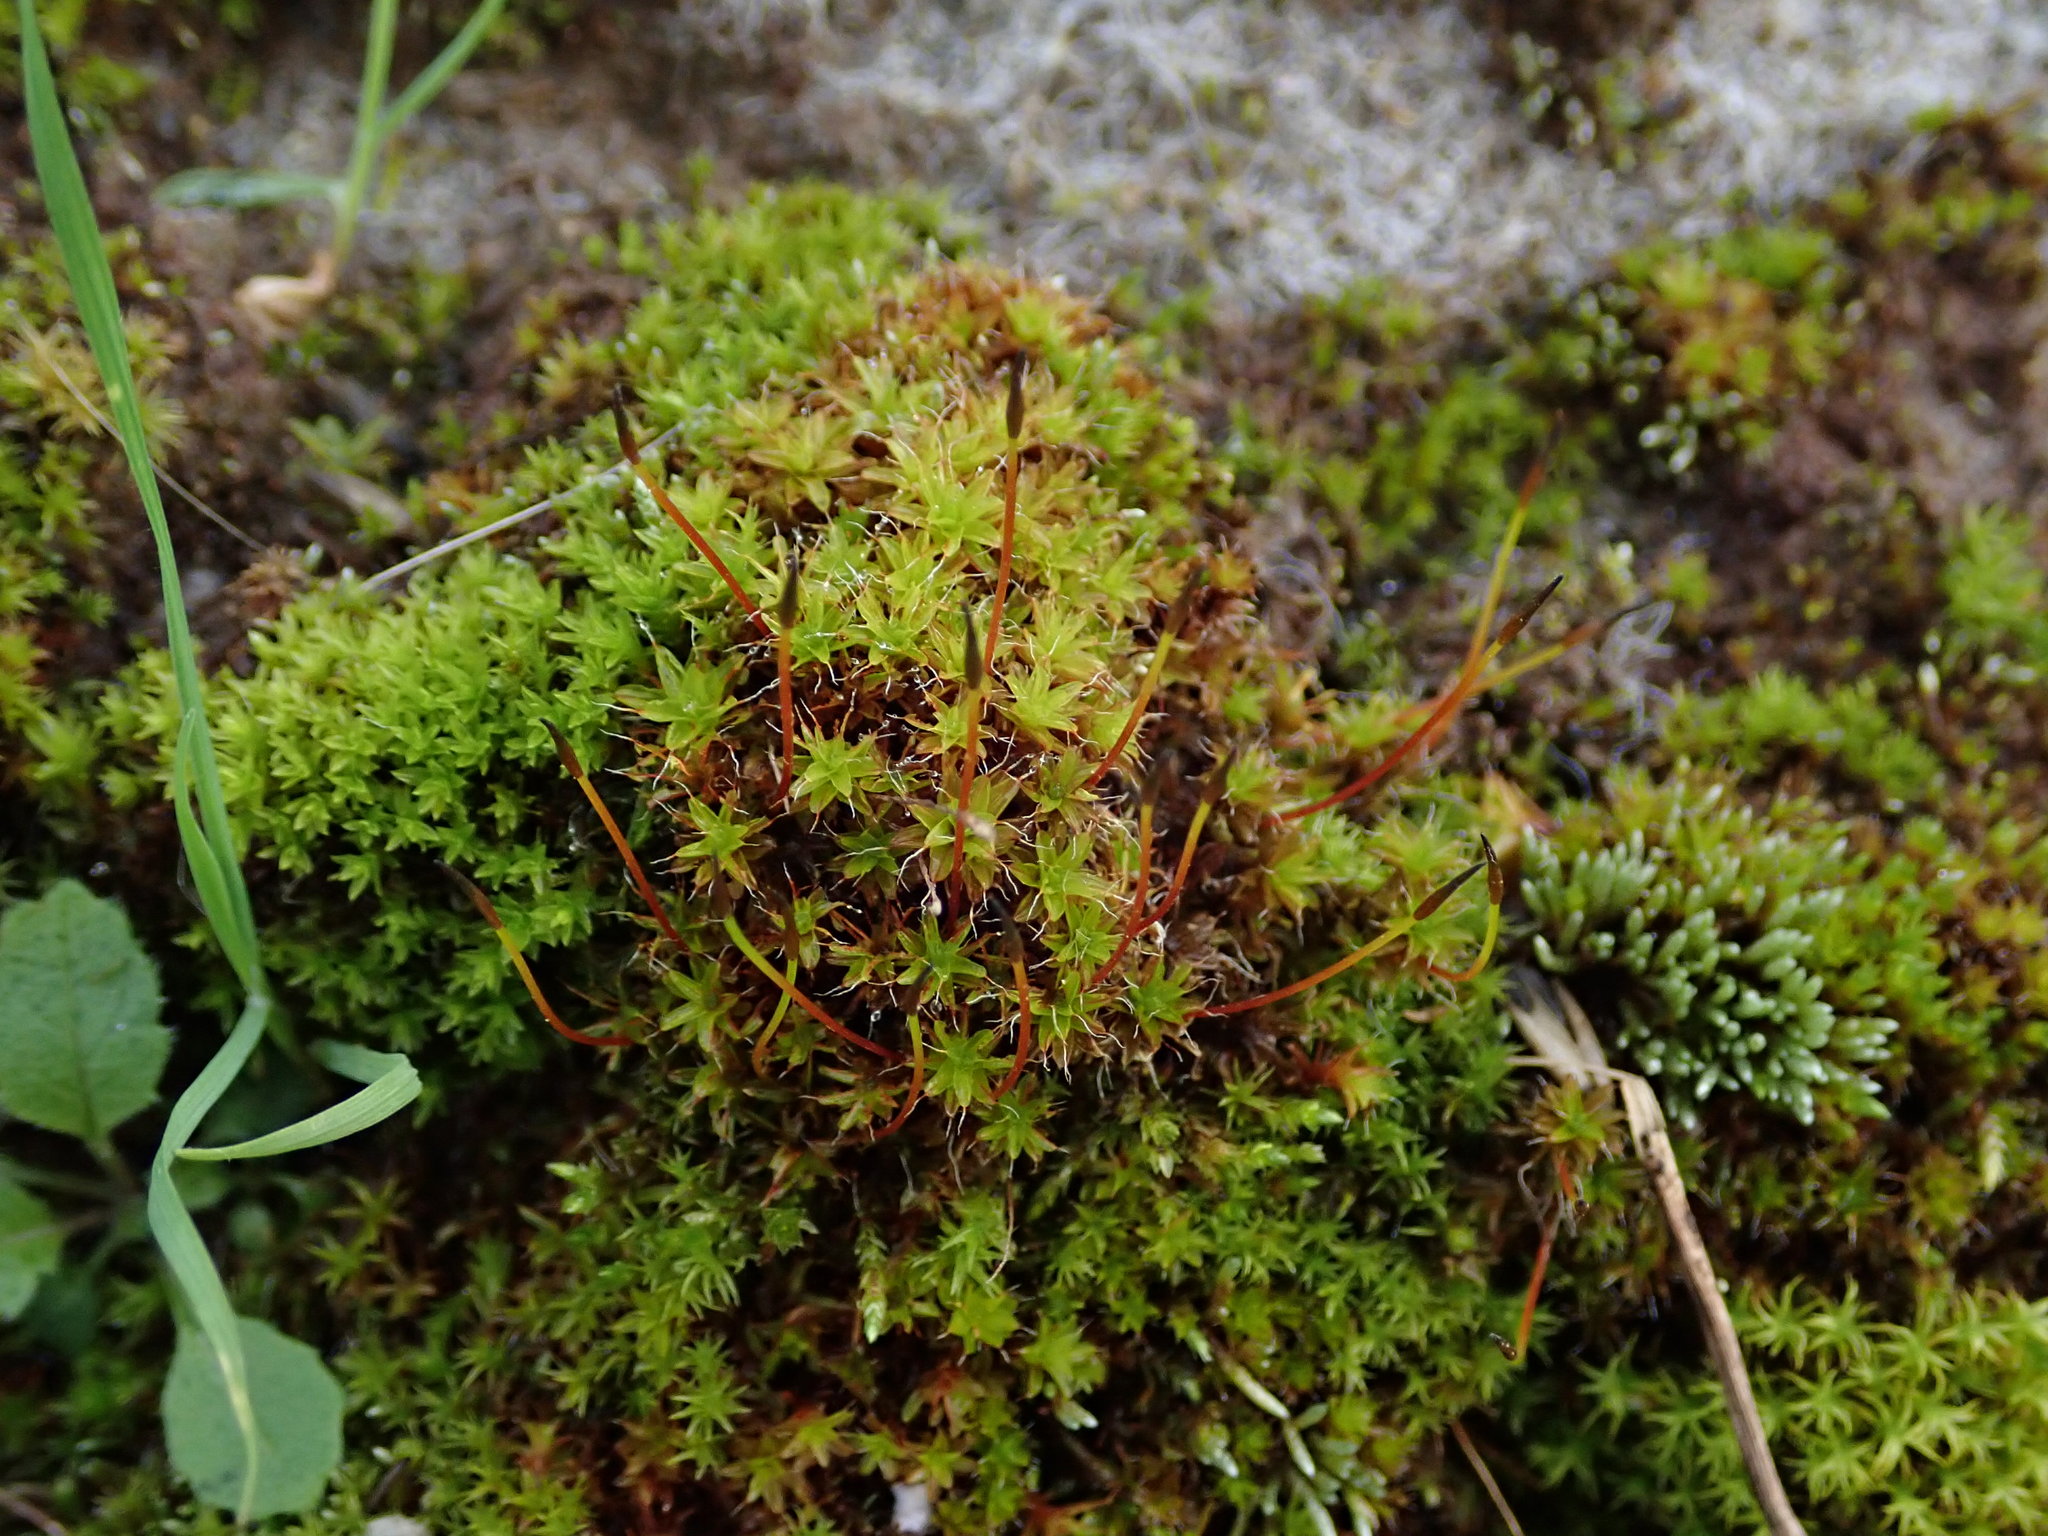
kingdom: Plantae
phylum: Bryophyta
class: Bryopsida
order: Pottiales
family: Pottiaceae
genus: Syntrichia
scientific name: Syntrichia ruralis
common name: Sidewalk screw moss
